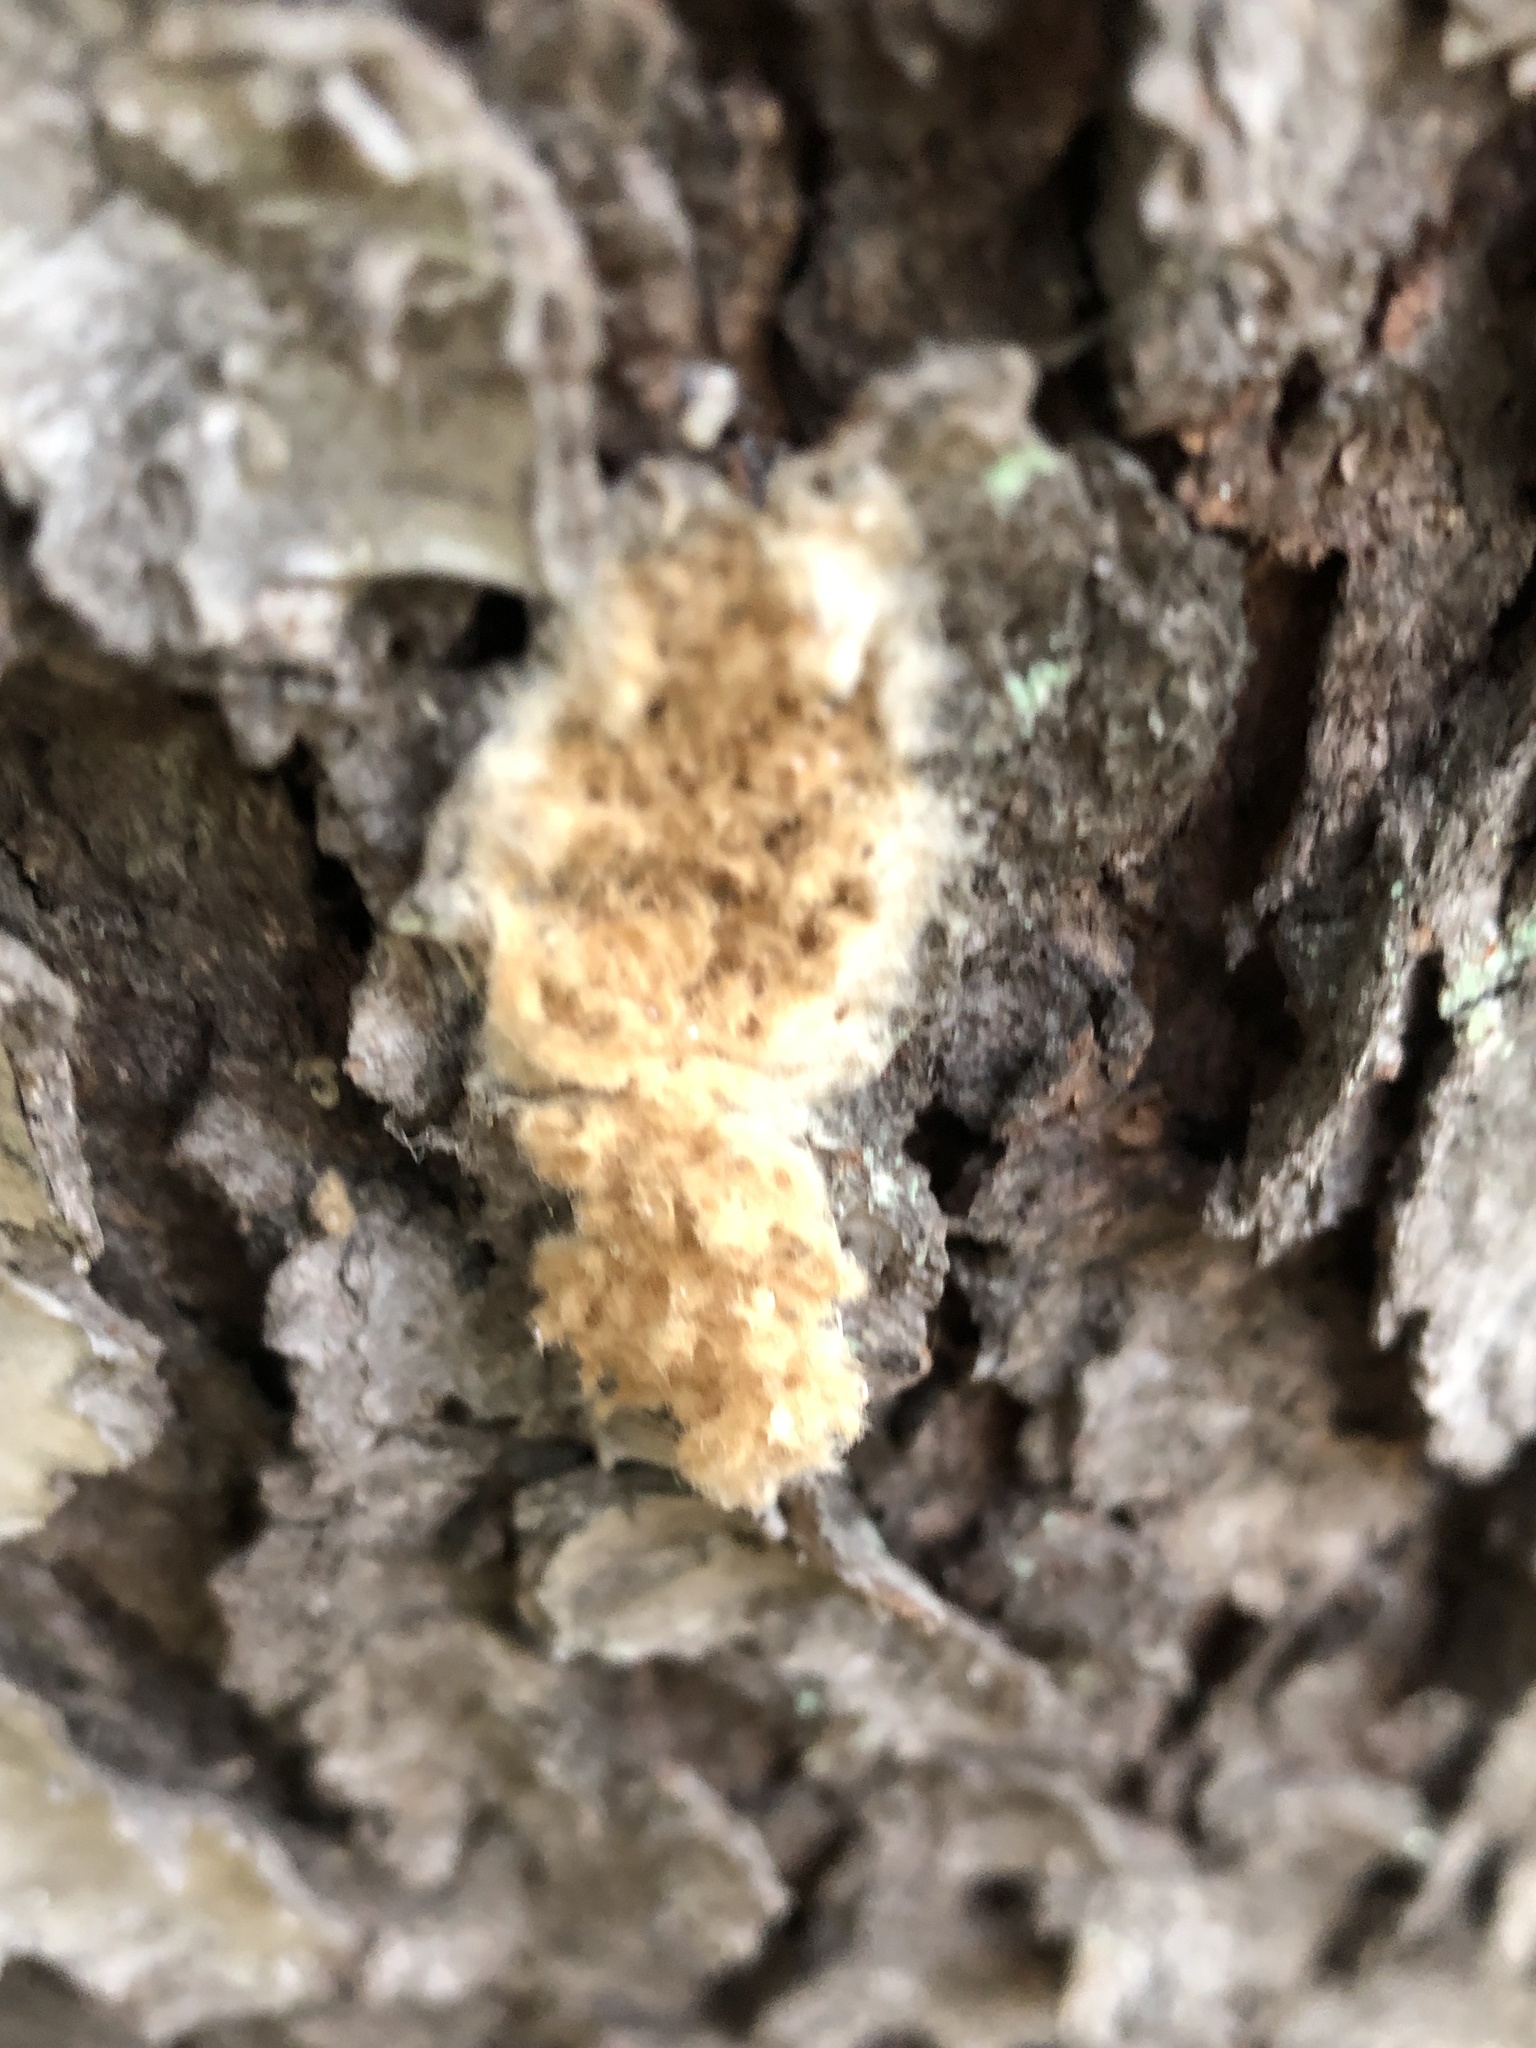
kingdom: Animalia
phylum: Arthropoda
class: Insecta
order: Lepidoptera
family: Erebidae
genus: Lymantria
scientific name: Lymantria dispar
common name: Gypsy moth
